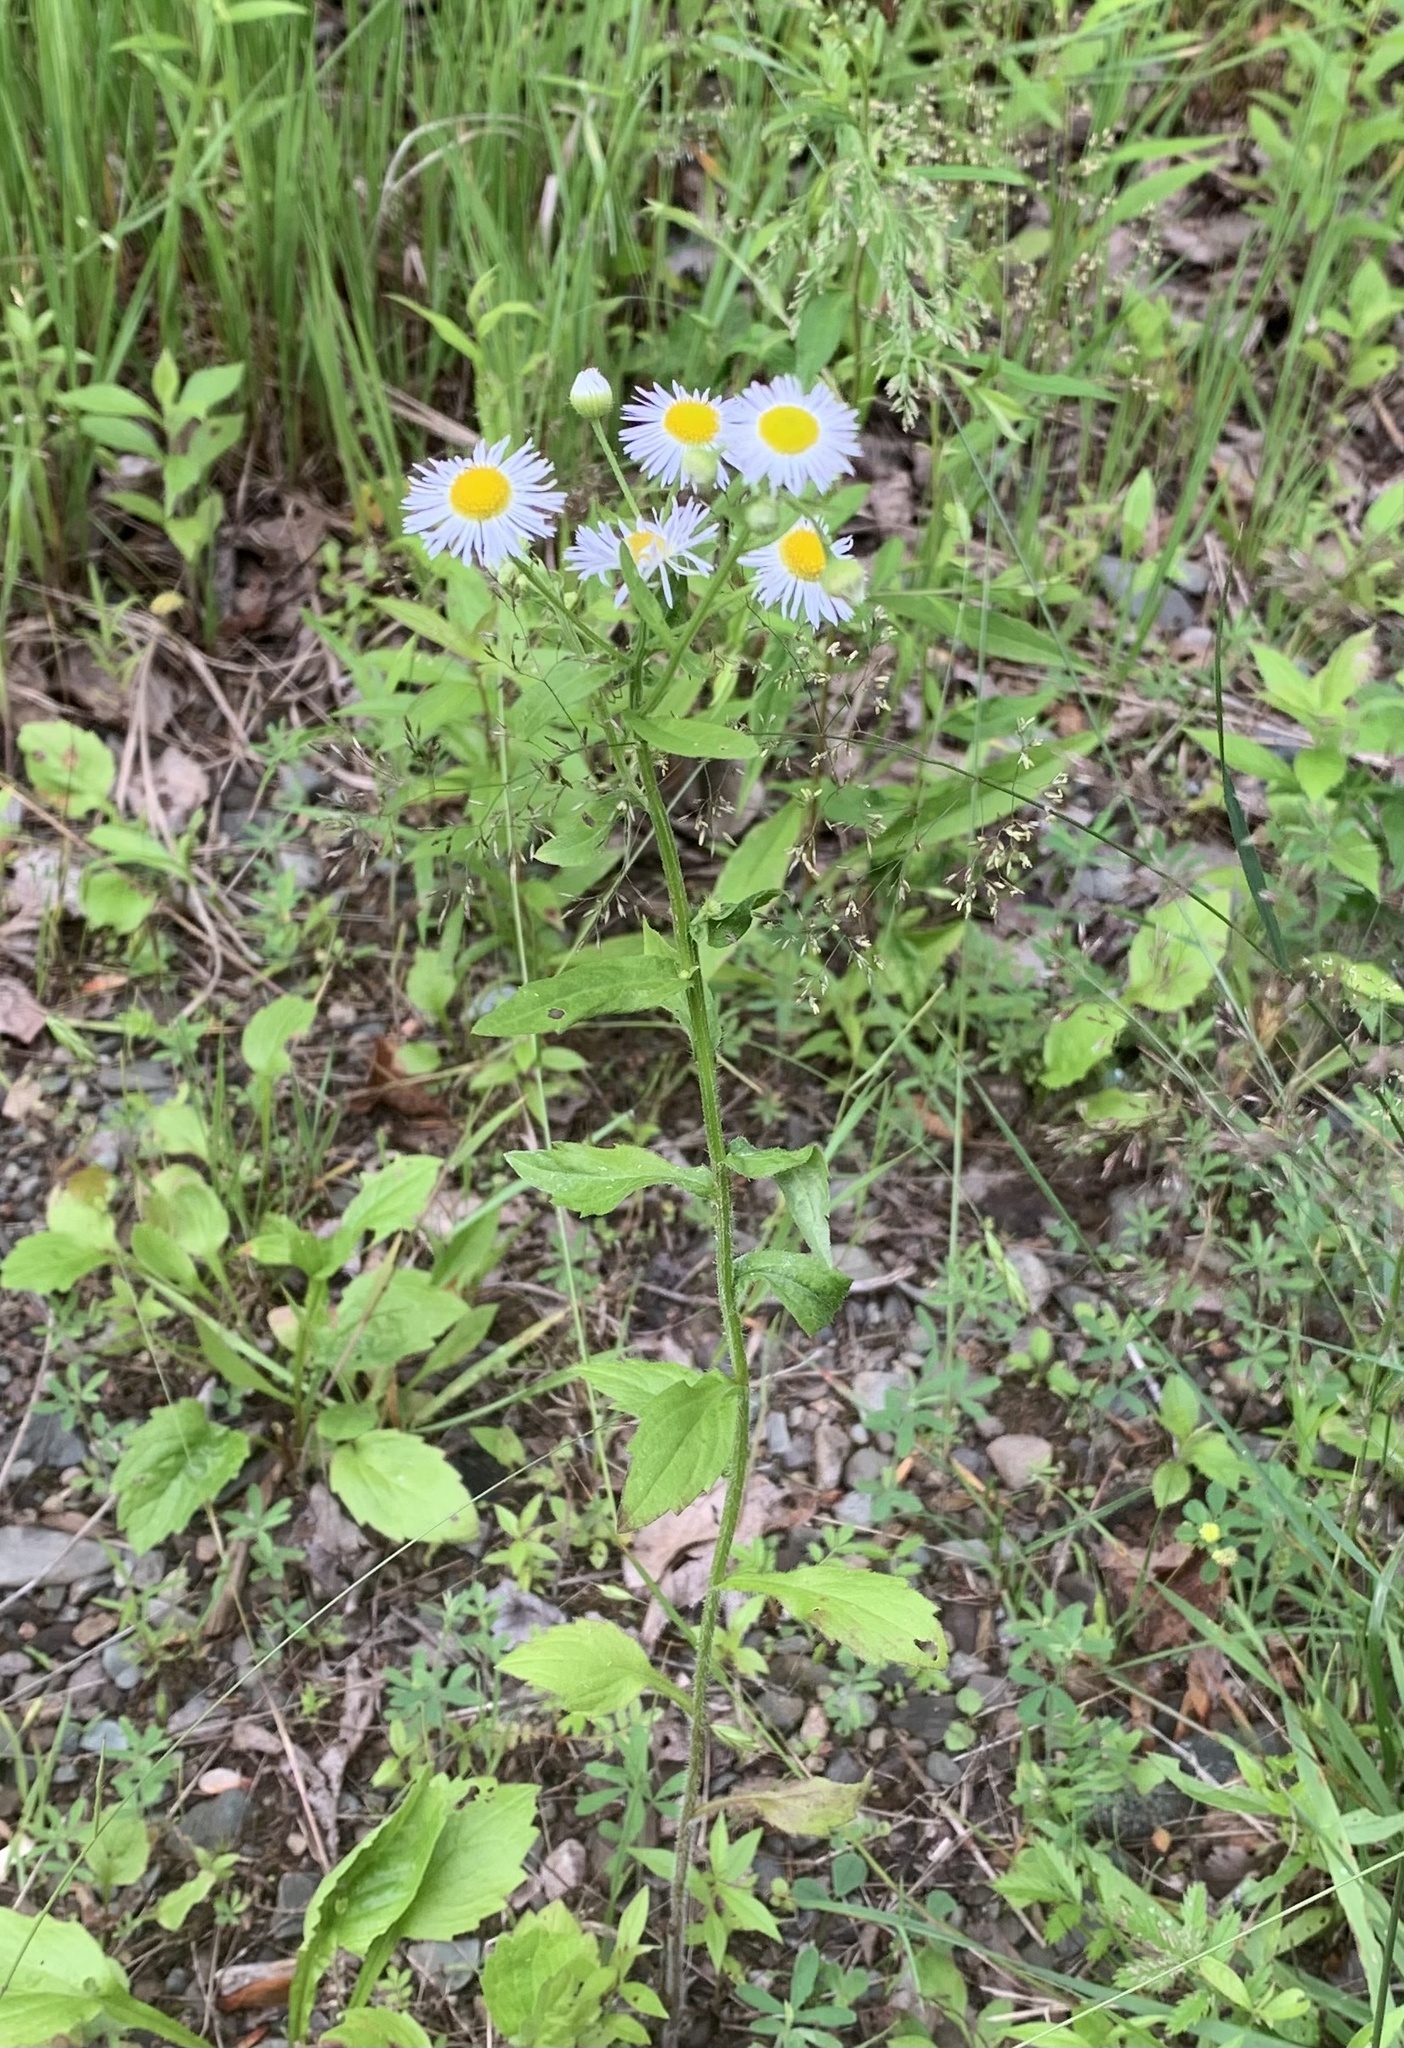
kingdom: Plantae
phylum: Tracheophyta
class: Magnoliopsida
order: Asterales
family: Asteraceae
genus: Erigeron
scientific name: Erigeron annuus
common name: Tall fleabane
